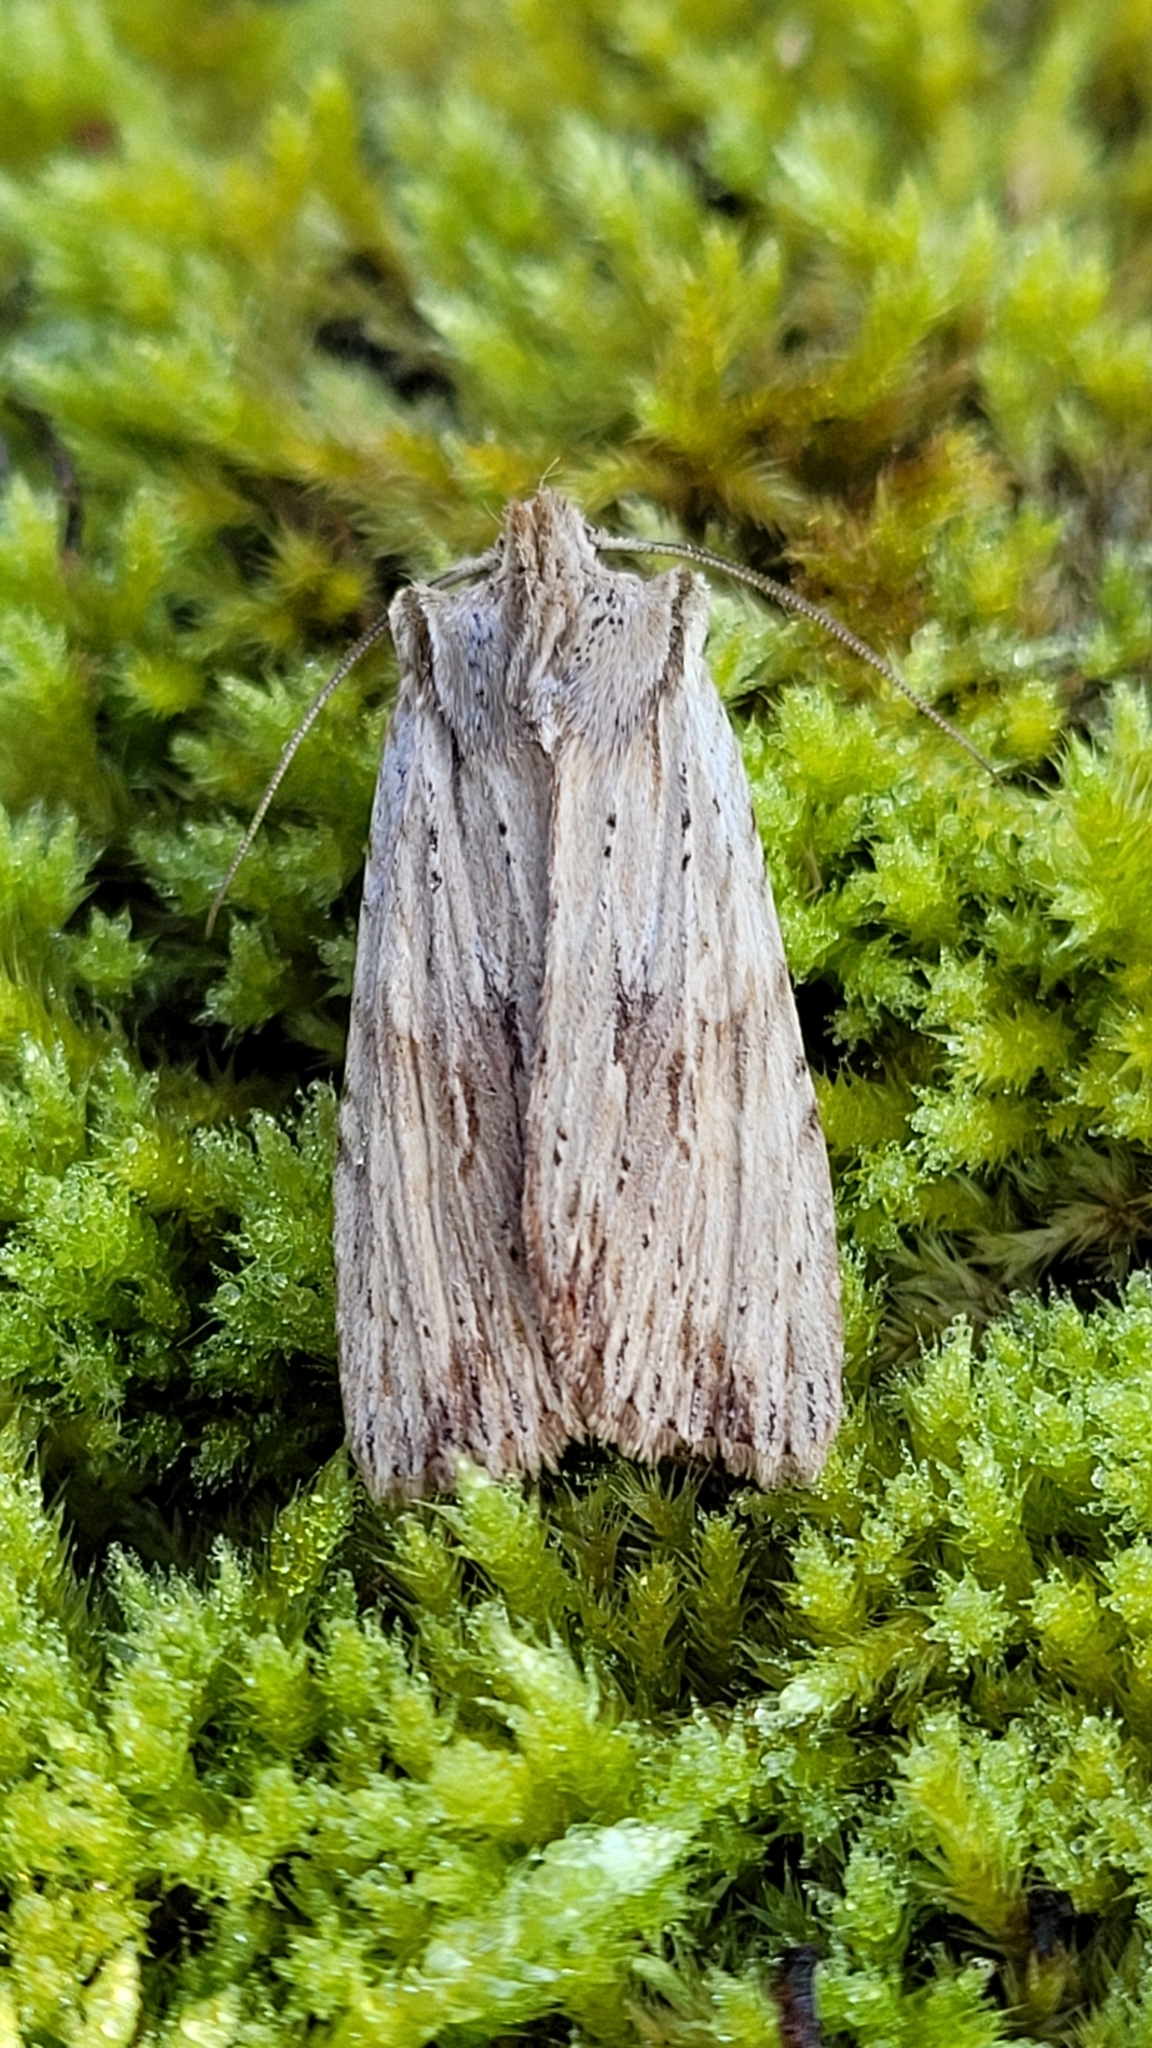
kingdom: Animalia
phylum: Arthropoda
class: Insecta
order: Lepidoptera
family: Noctuidae
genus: Lithophane
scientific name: Lithophane socia
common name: Pale pinion
